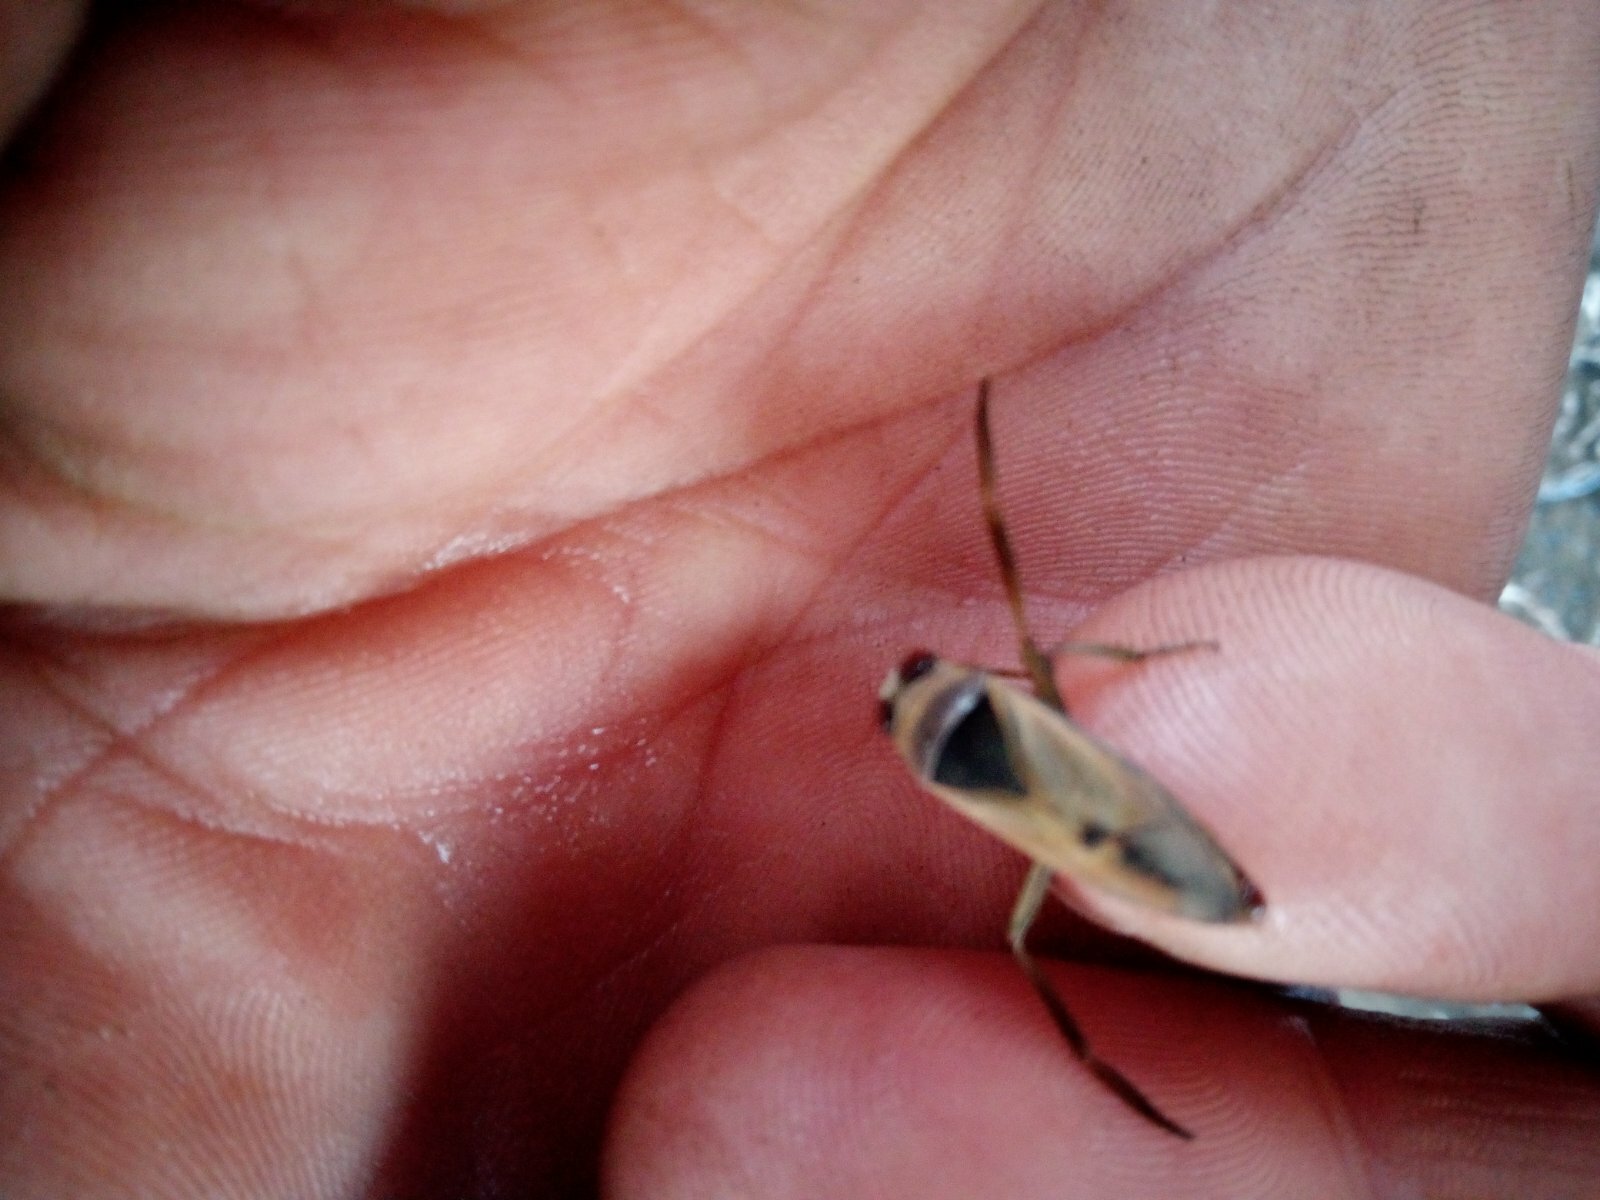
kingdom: Animalia
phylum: Arthropoda
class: Insecta
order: Hemiptera
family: Notonectidae
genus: Notonecta
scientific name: Notonecta glauca
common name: Common water-boatman
